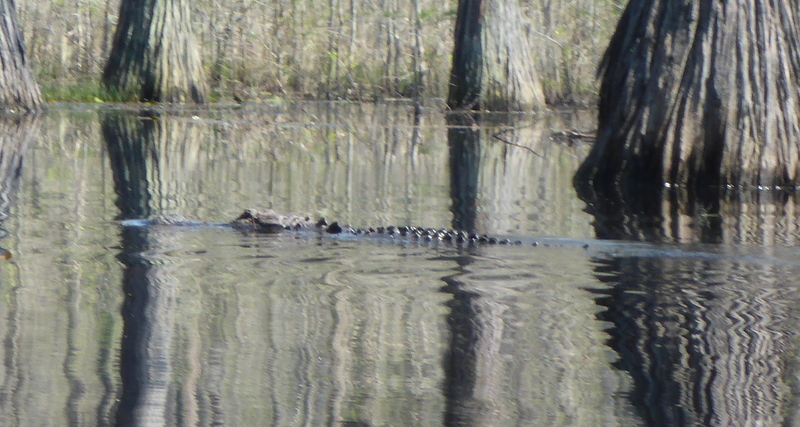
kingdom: Animalia
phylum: Chordata
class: Crocodylia
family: Alligatoridae
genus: Alligator
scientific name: Alligator mississippiensis
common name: American alligator
